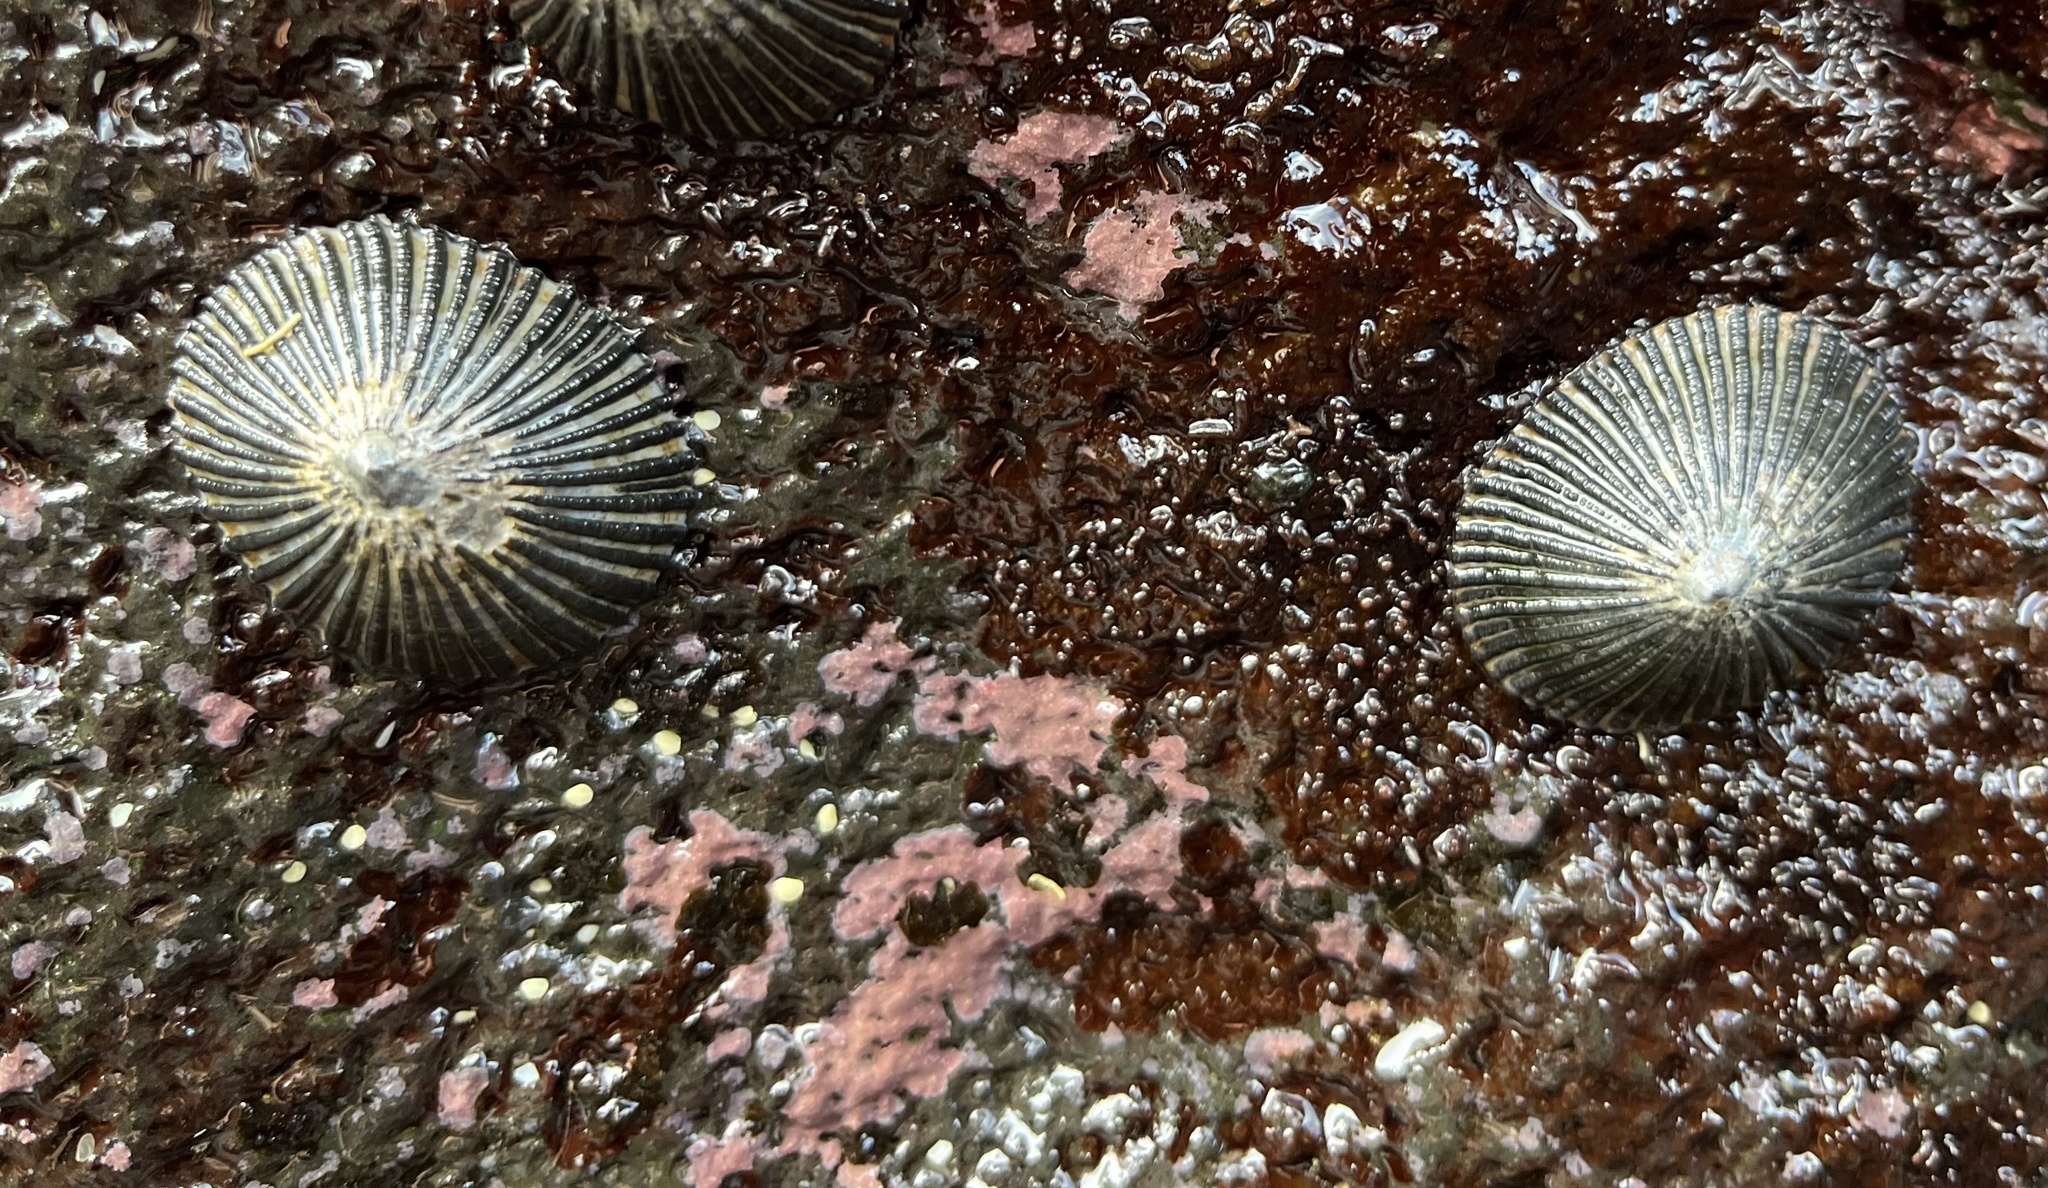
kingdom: Animalia
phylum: Mollusca
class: Gastropoda
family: Nacellidae
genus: Cellana
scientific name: Cellana exarata
